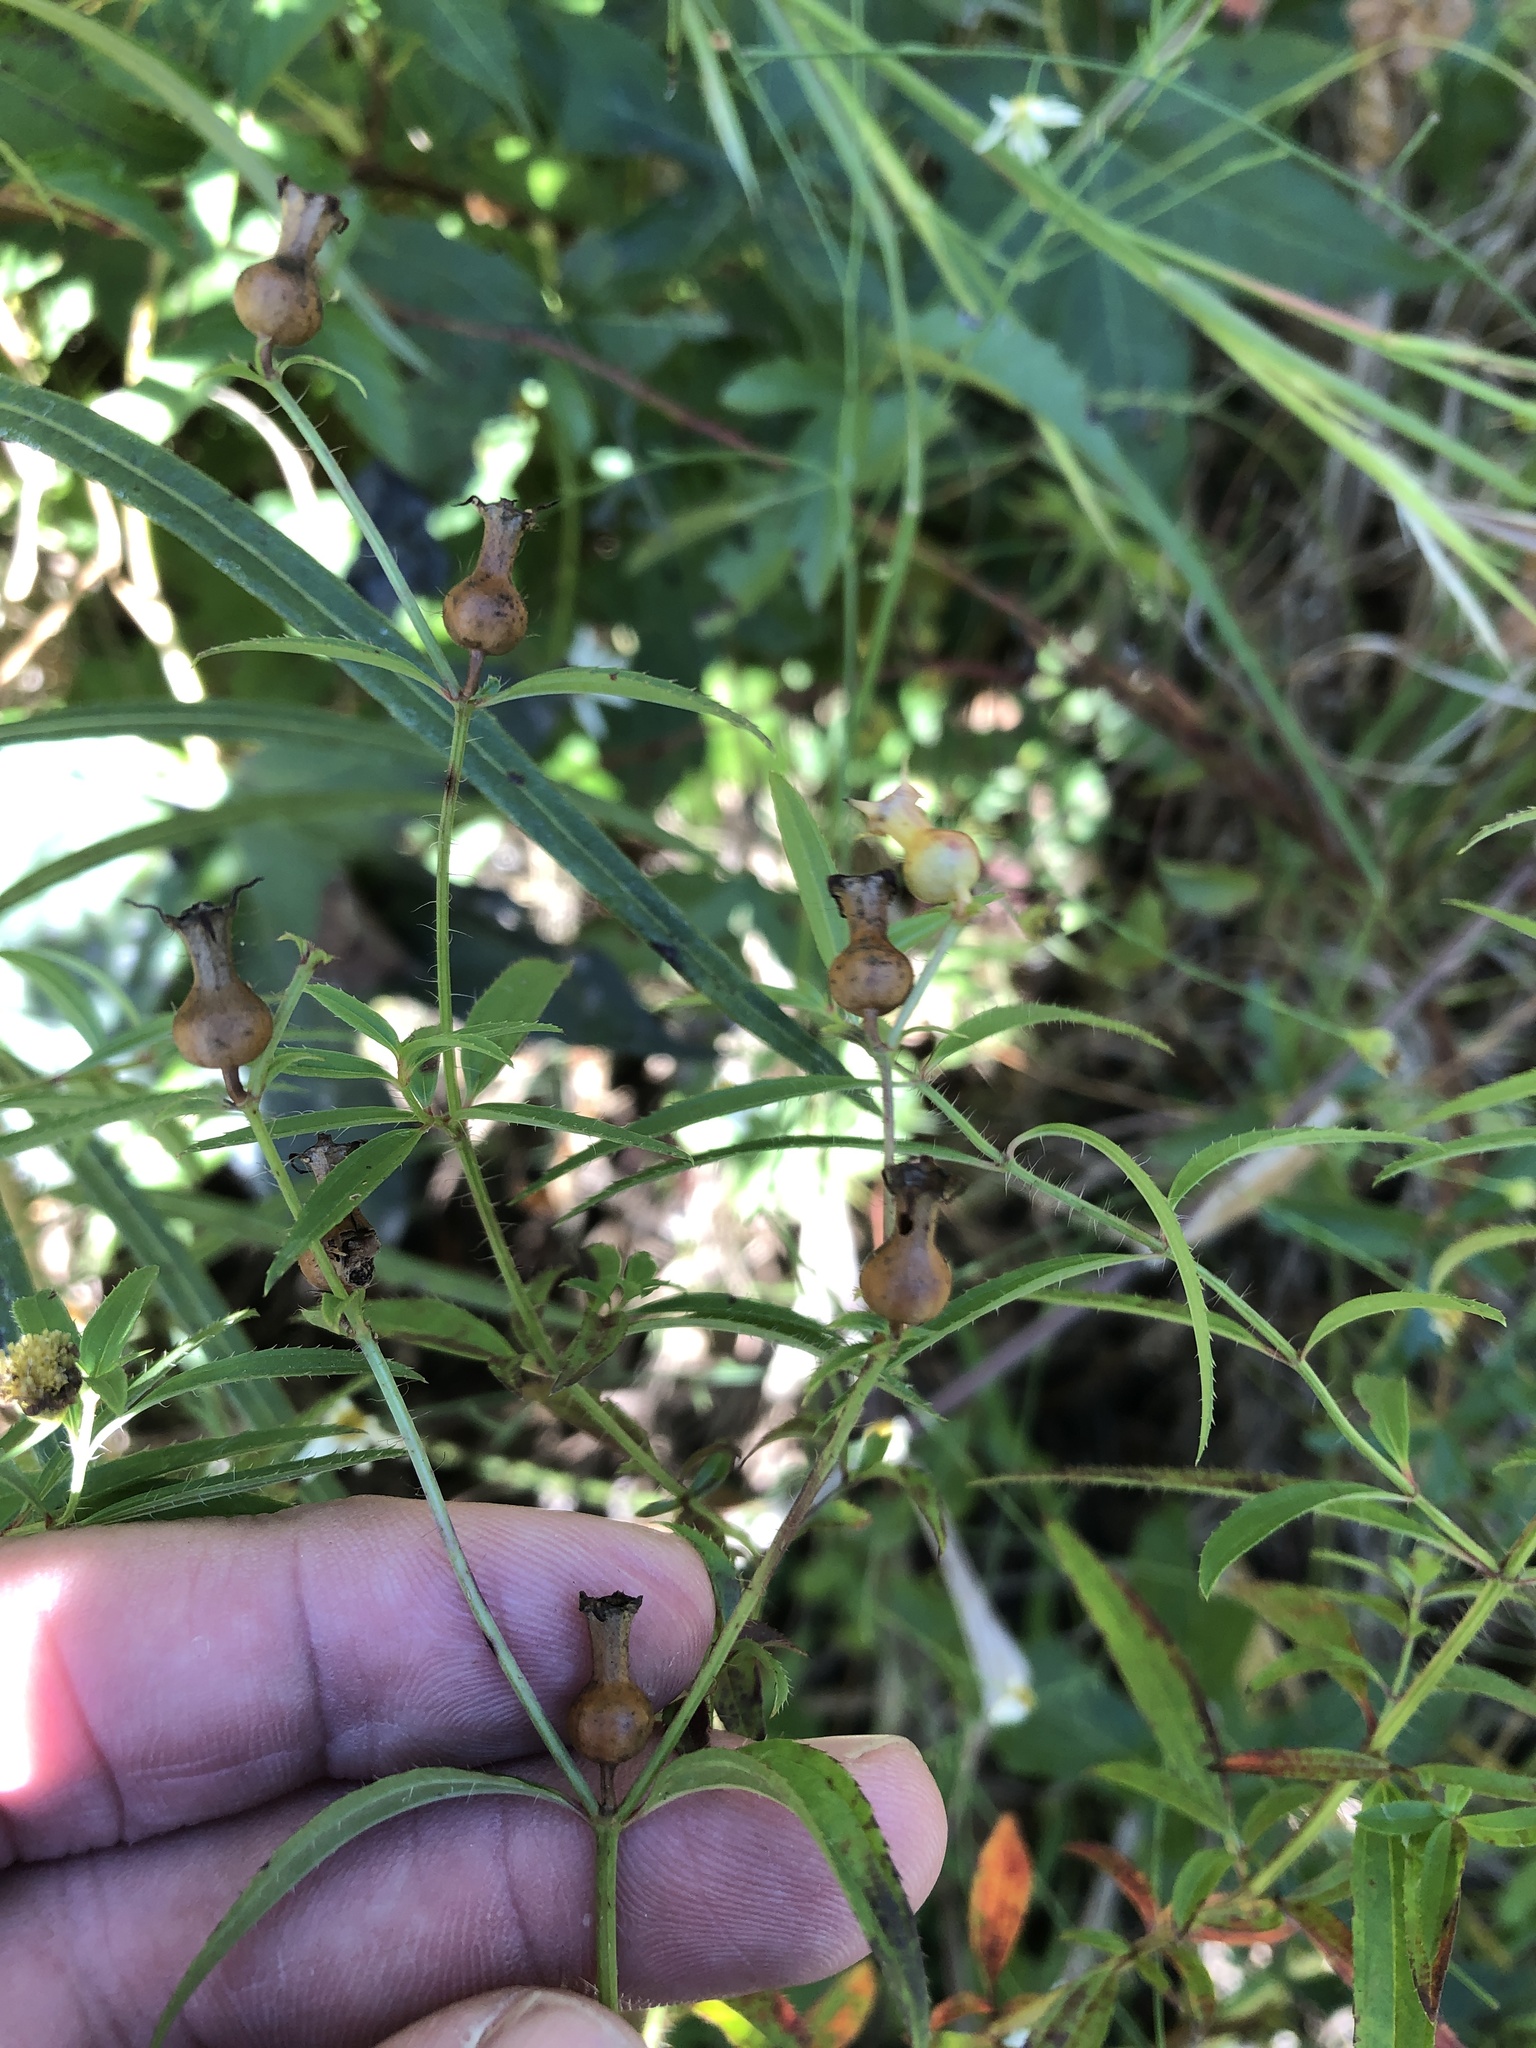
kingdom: Plantae
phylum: Tracheophyta
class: Magnoliopsida
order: Myrtales
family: Melastomataceae
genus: Rhexia
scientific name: Rhexia mariana
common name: Dull meadow-pitcher
